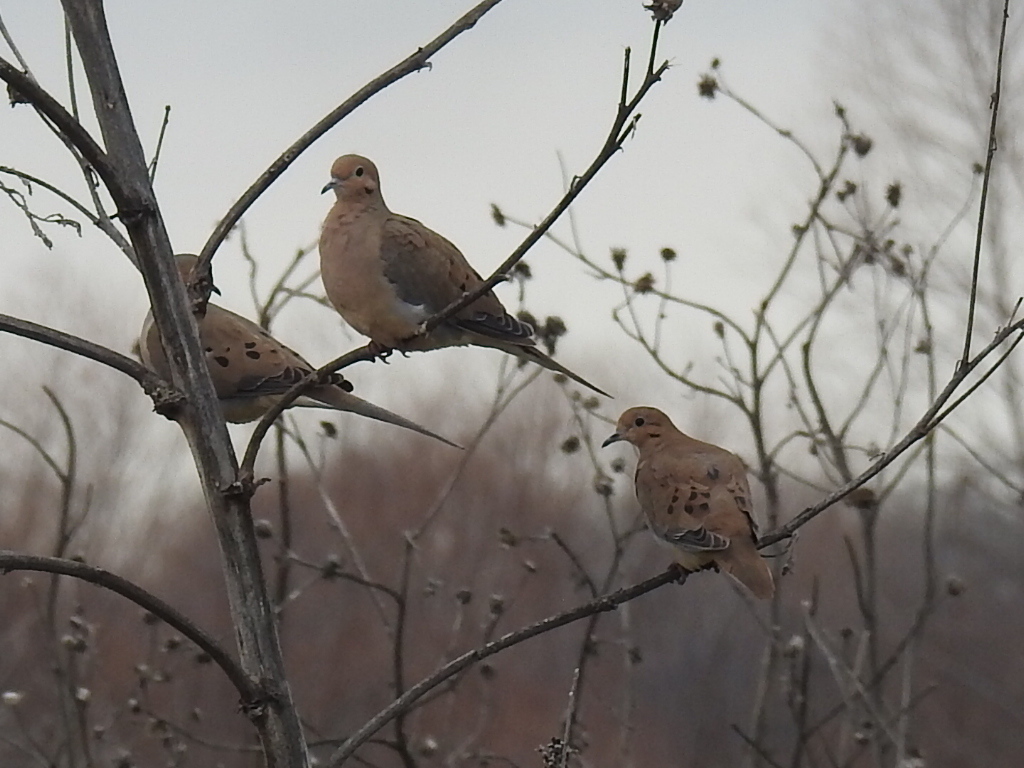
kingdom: Animalia
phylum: Chordata
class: Aves
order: Columbiformes
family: Columbidae
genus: Zenaida
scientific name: Zenaida macroura
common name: Mourning dove
